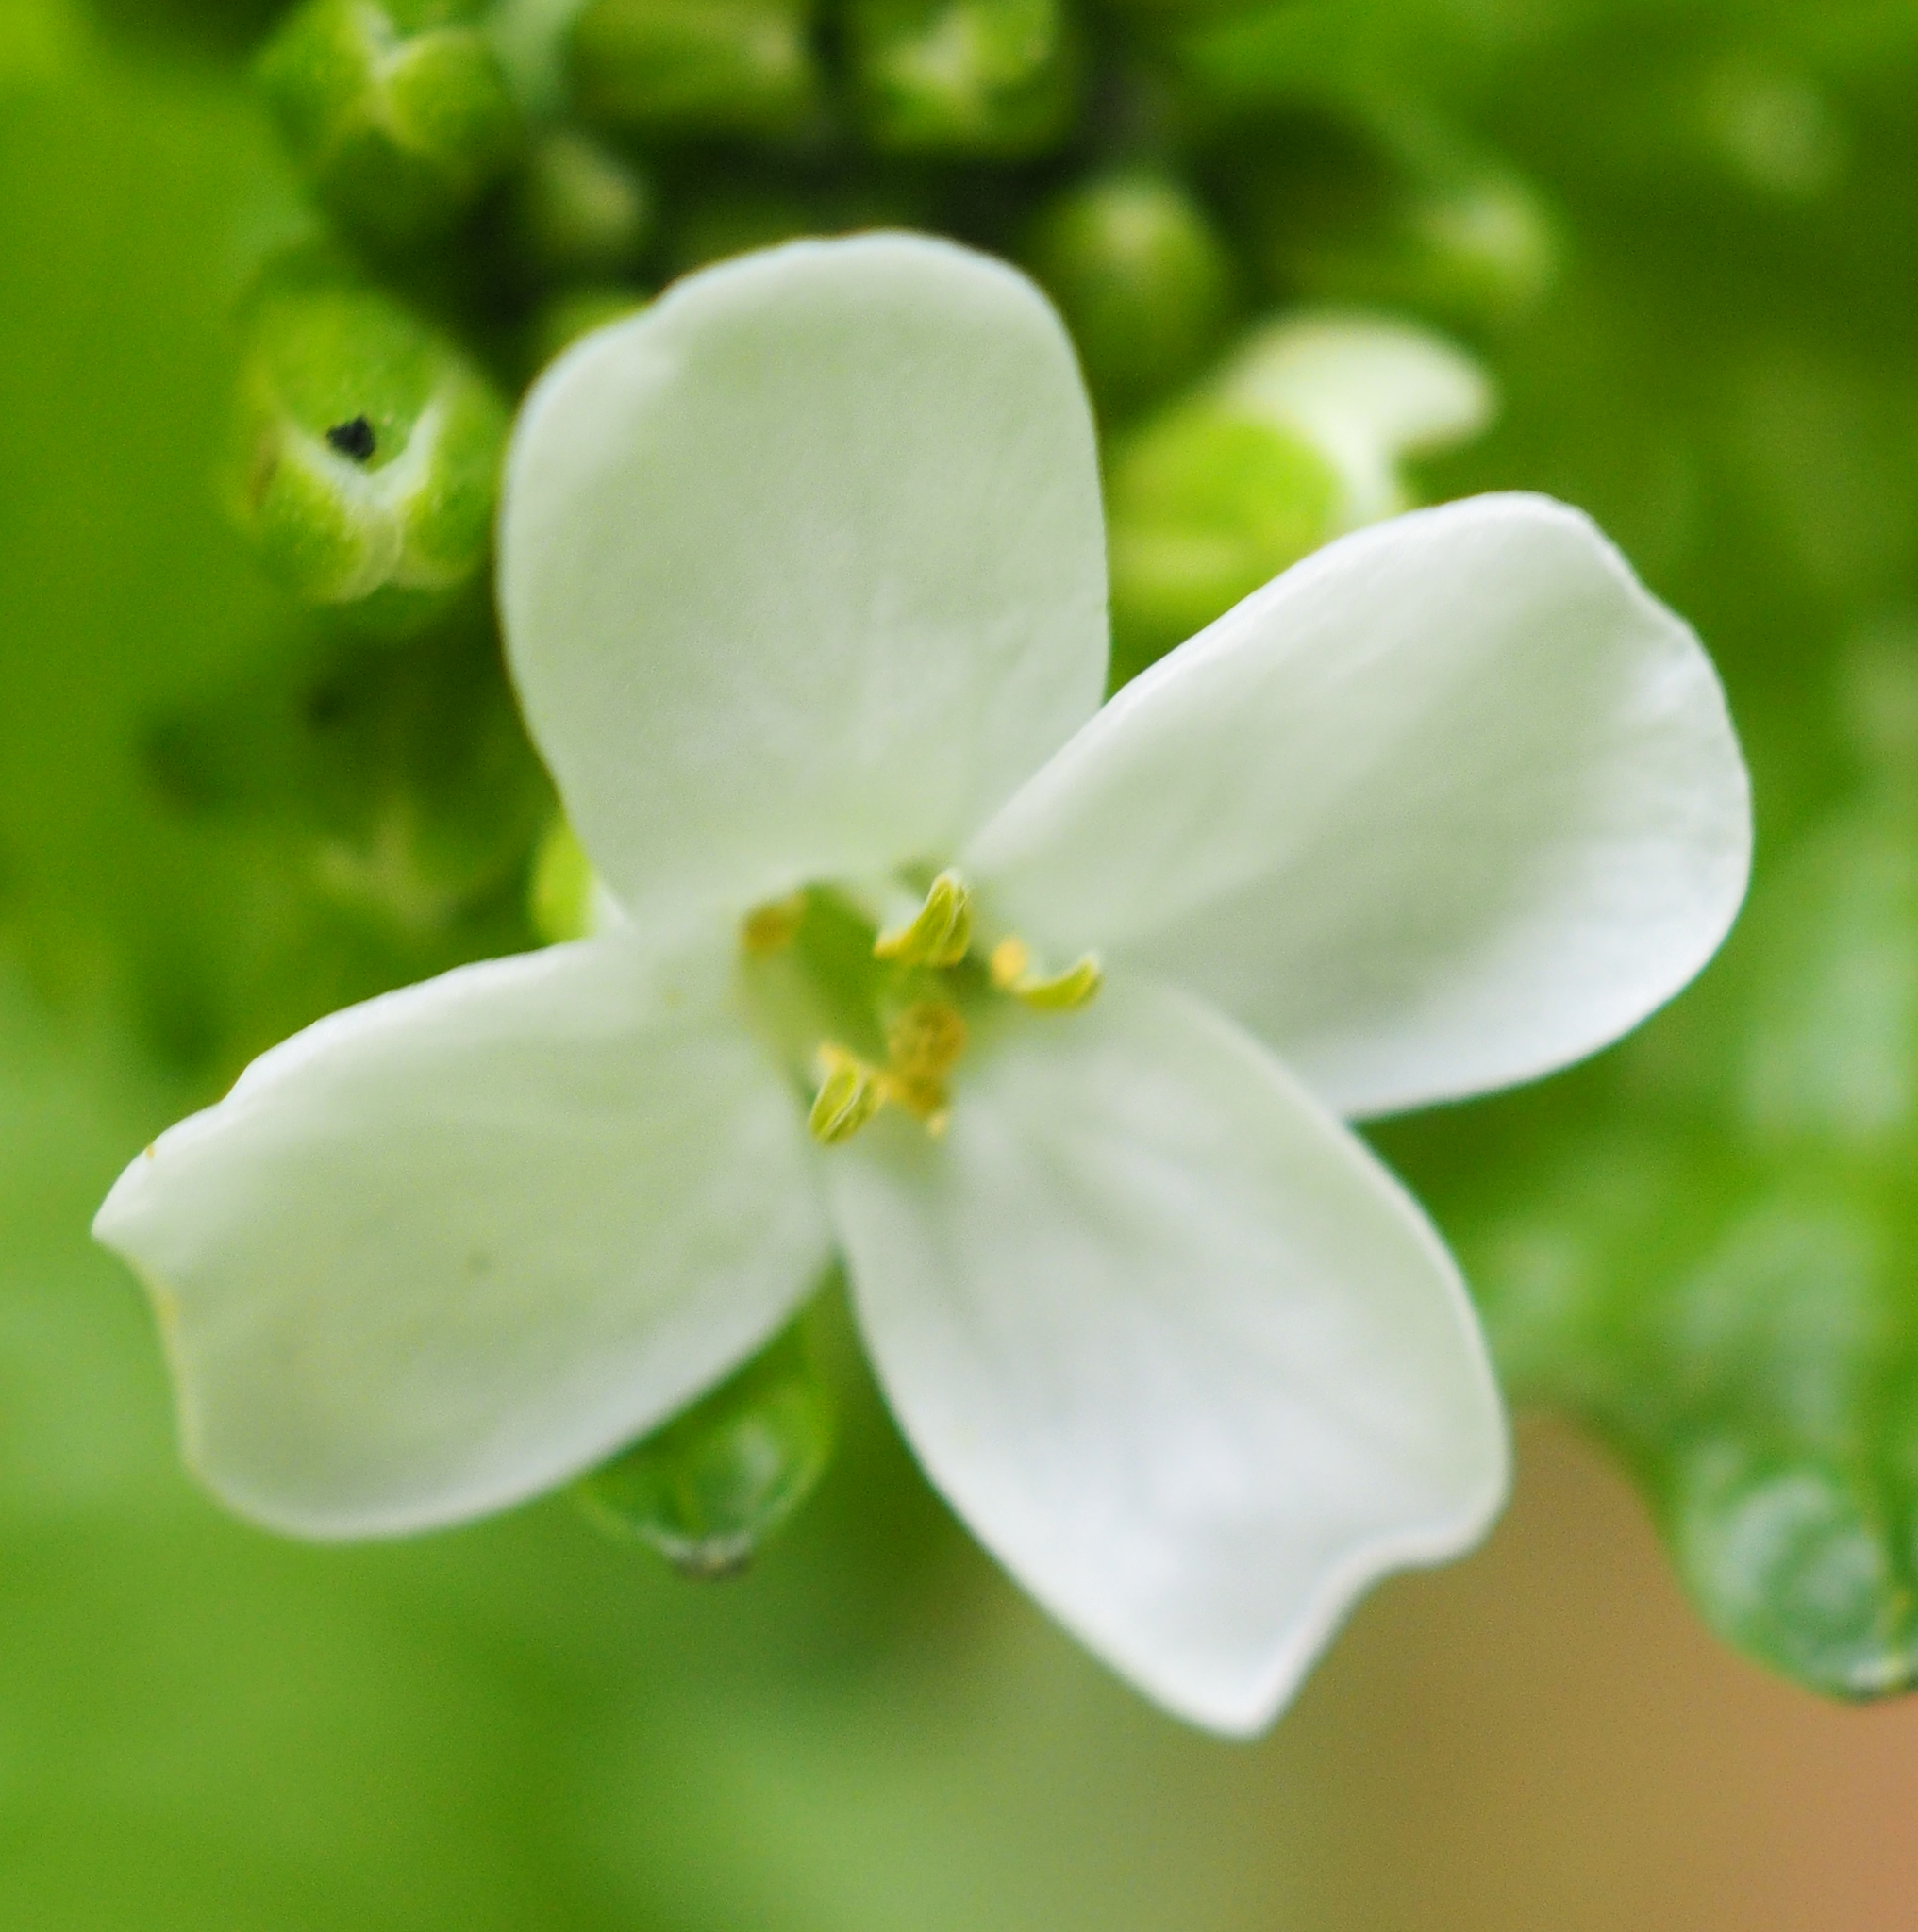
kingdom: Plantae
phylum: Tracheophyta
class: Magnoliopsida
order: Brassicales
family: Brassicaceae
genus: Alliaria
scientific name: Alliaria petiolata
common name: Garlic mustard
